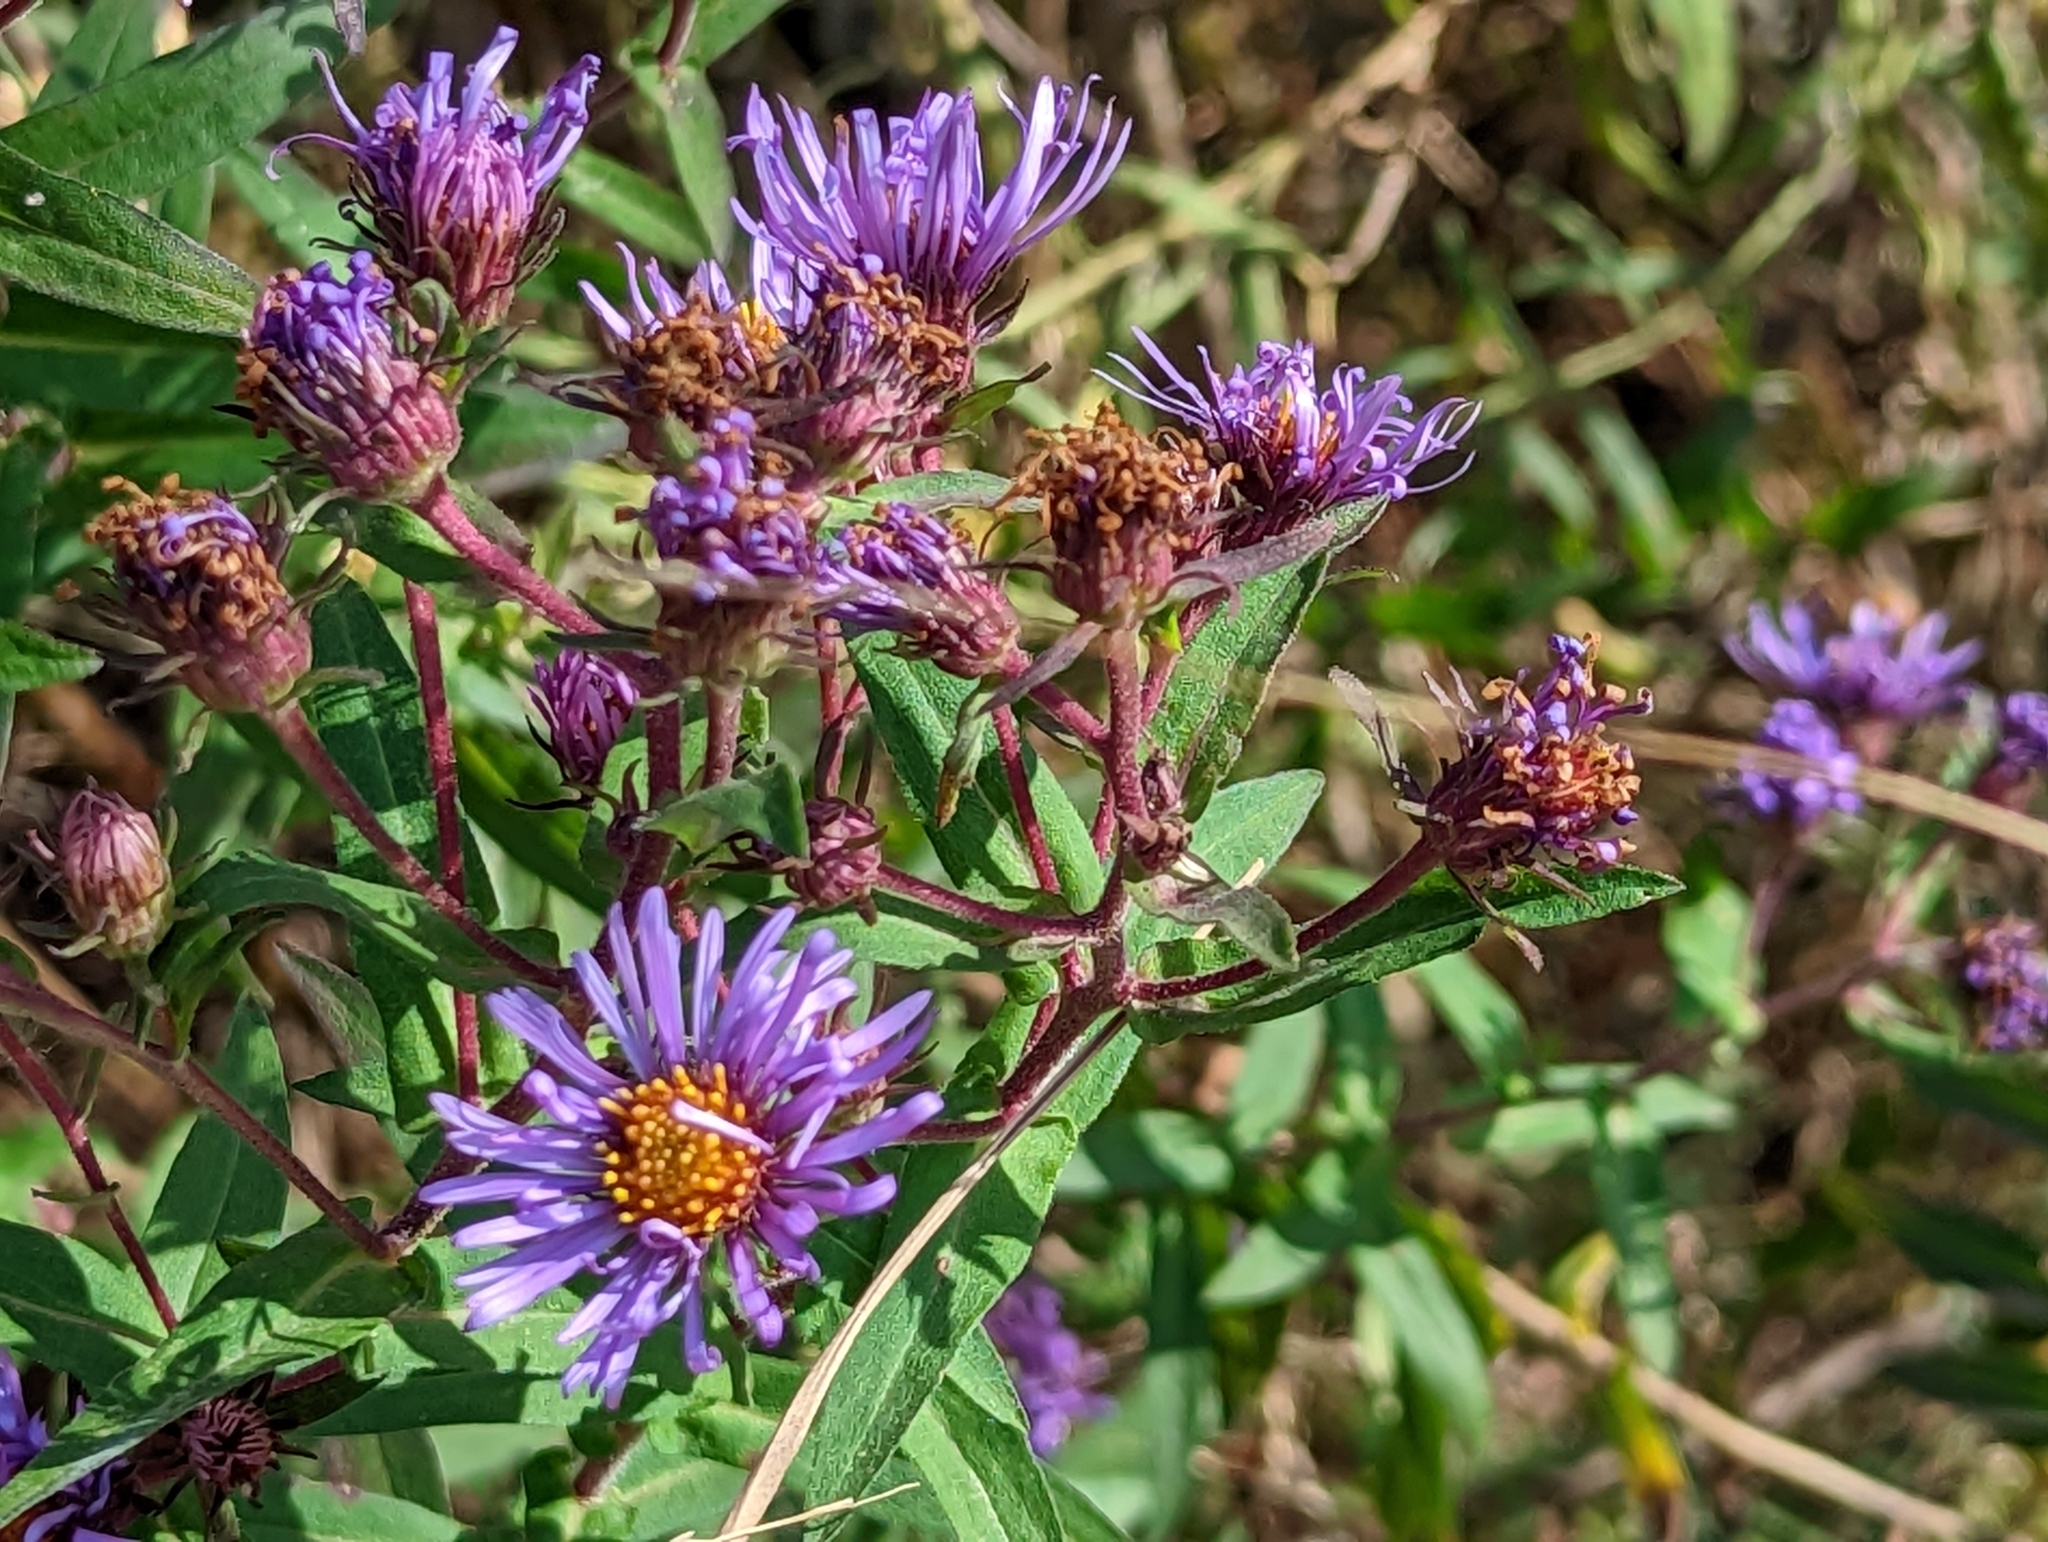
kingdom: Plantae
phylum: Tracheophyta
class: Magnoliopsida
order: Asterales
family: Asteraceae
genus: Symphyotrichum
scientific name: Symphyotrichum novae-angliae
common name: Michaelmas daisy
